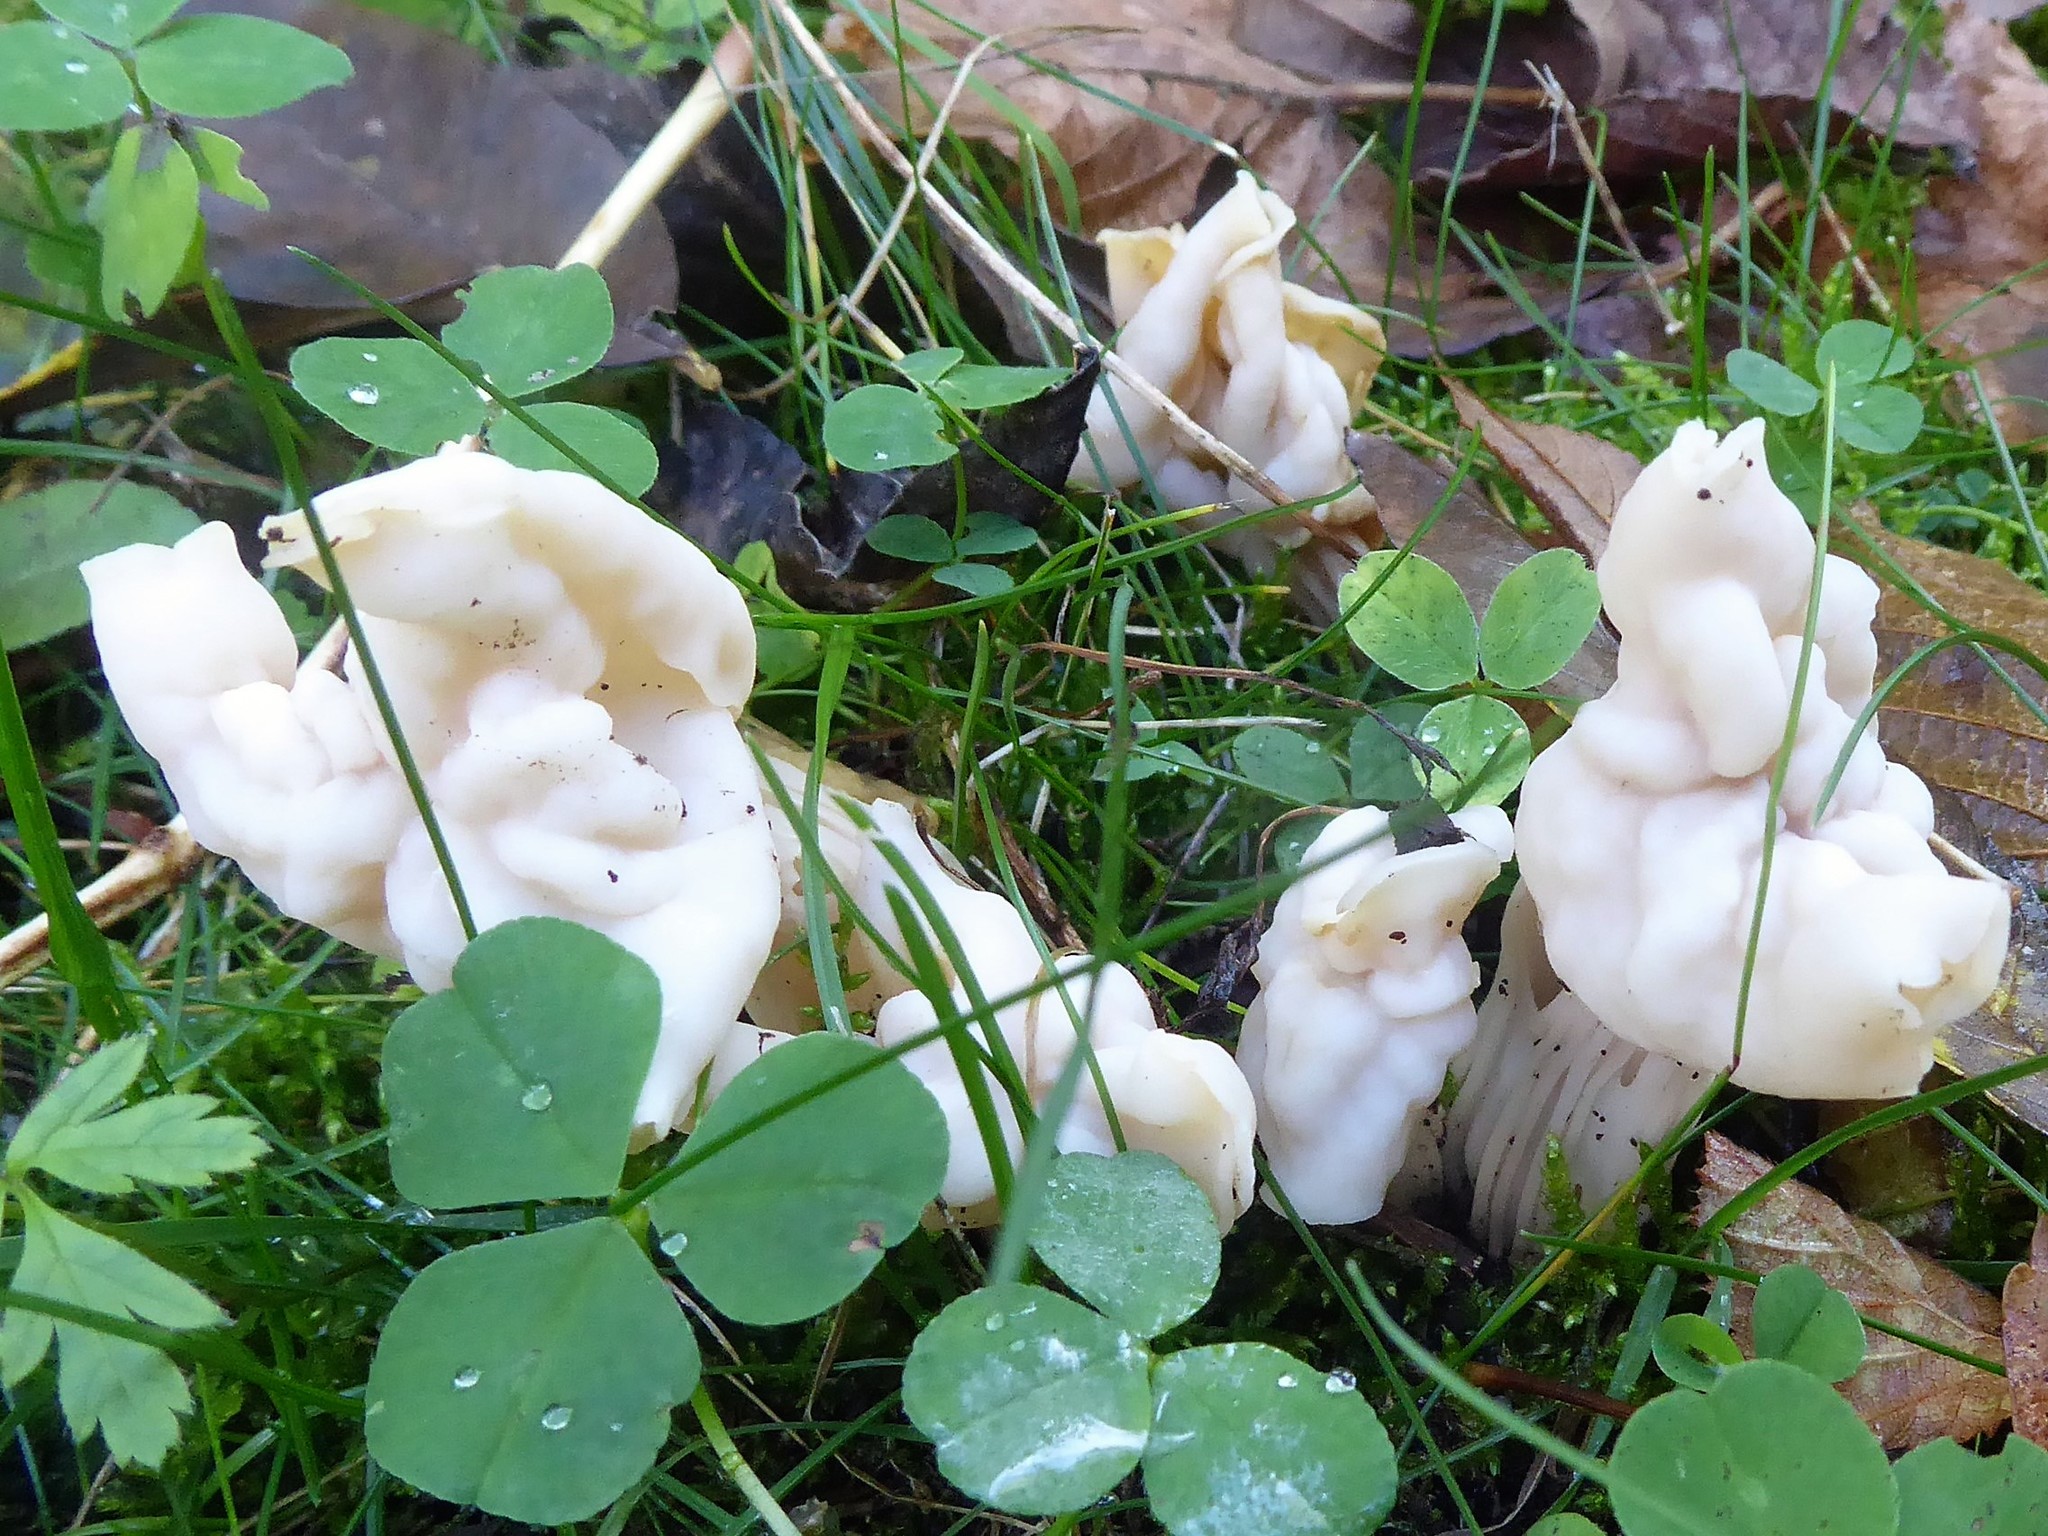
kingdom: Fungi
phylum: Ascomycota
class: Pezizomycetes
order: Pezizales
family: Helvellaceae
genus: Helvella
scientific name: Helvella crispa
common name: White saddle
